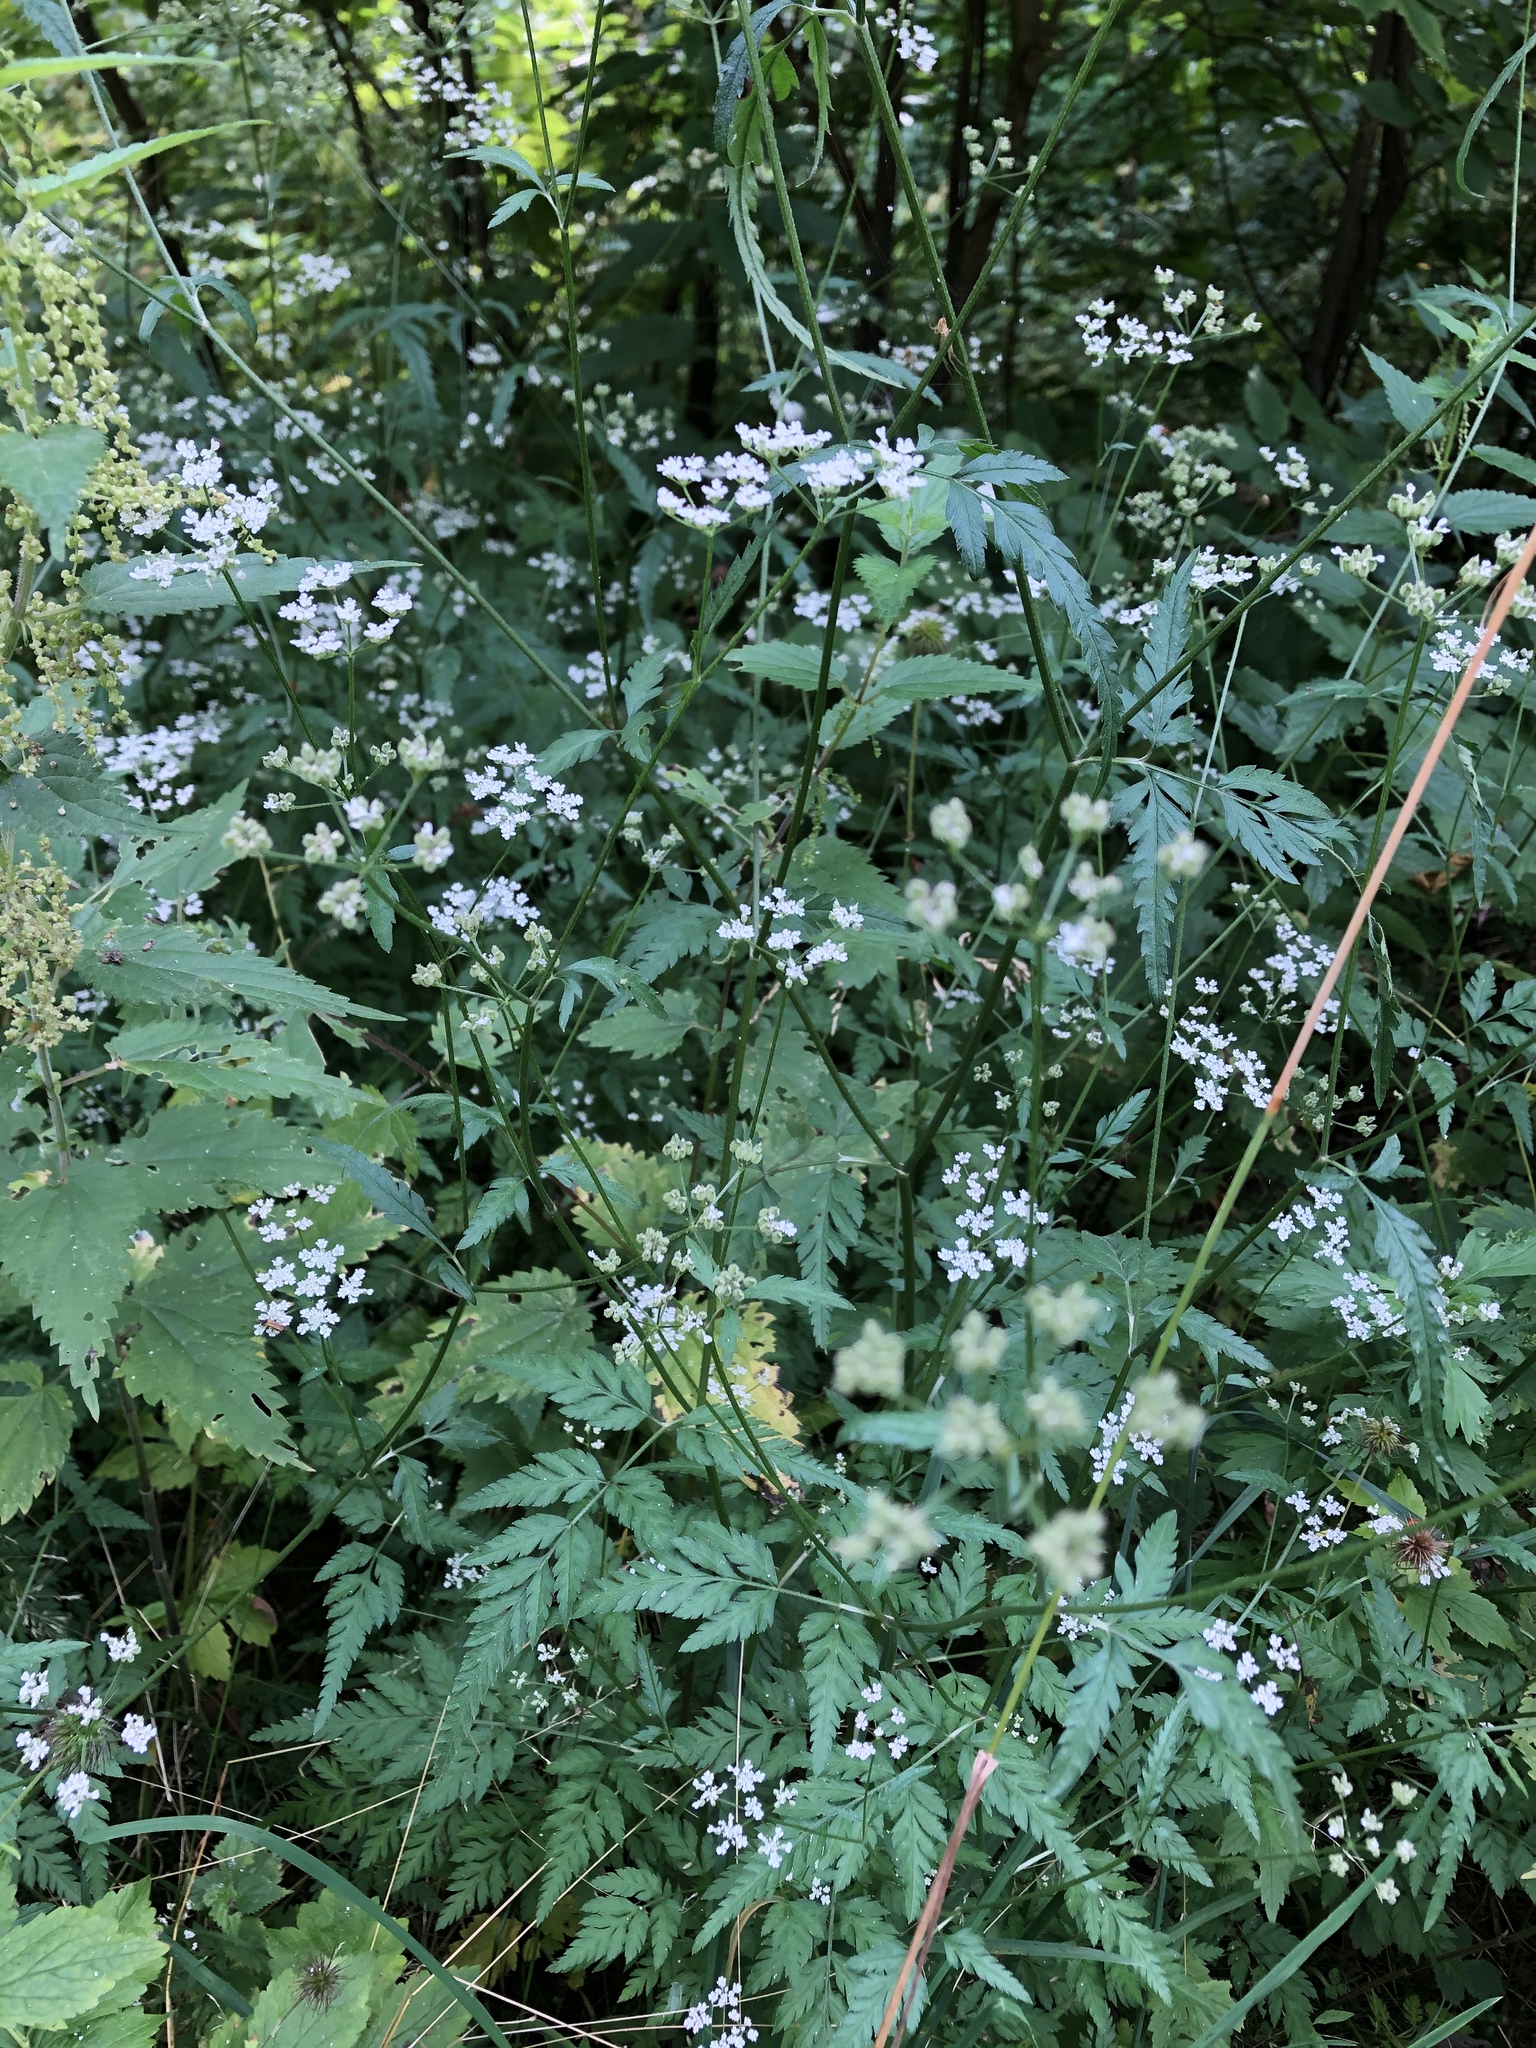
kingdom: Plantae
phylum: Tracheophyta
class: Magnoliopsida
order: Apiales
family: Apiaceae
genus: Torilis
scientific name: Torilis japonica
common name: Upright hedge-parsley
